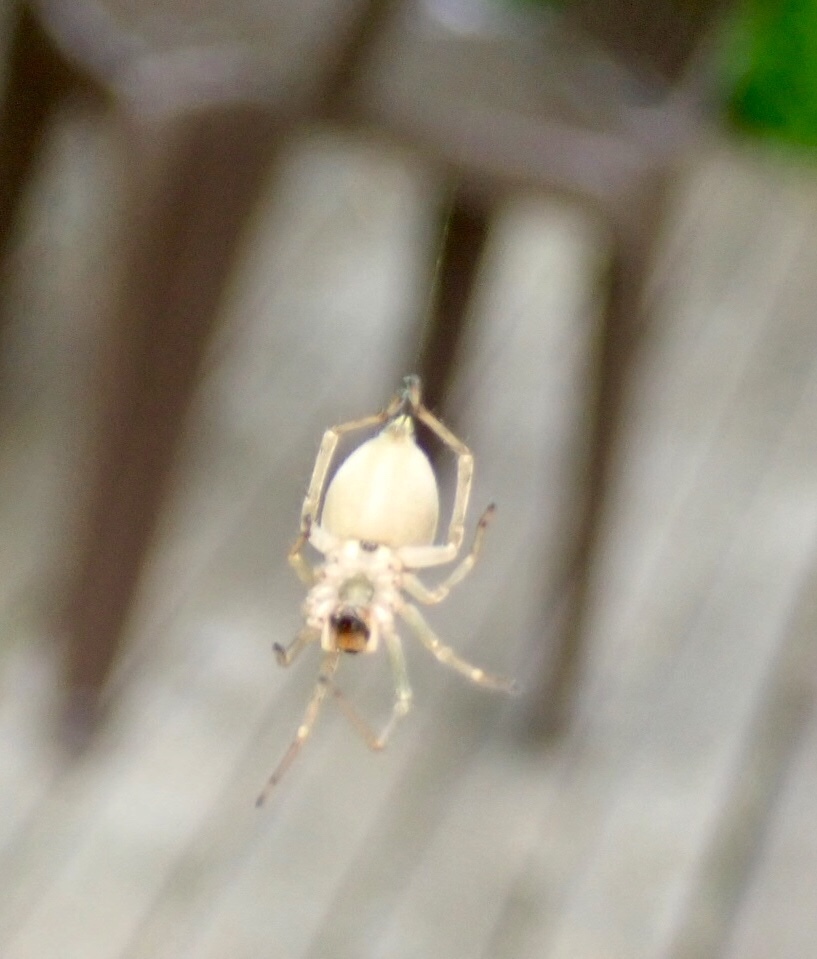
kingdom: Animalia
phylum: Arthropoda
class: Arachnida
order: Araneae
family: Cheiracanthiidae
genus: Cheiracanthium
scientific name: Cheiracanthium mildei
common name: Northern yellow sac spider
